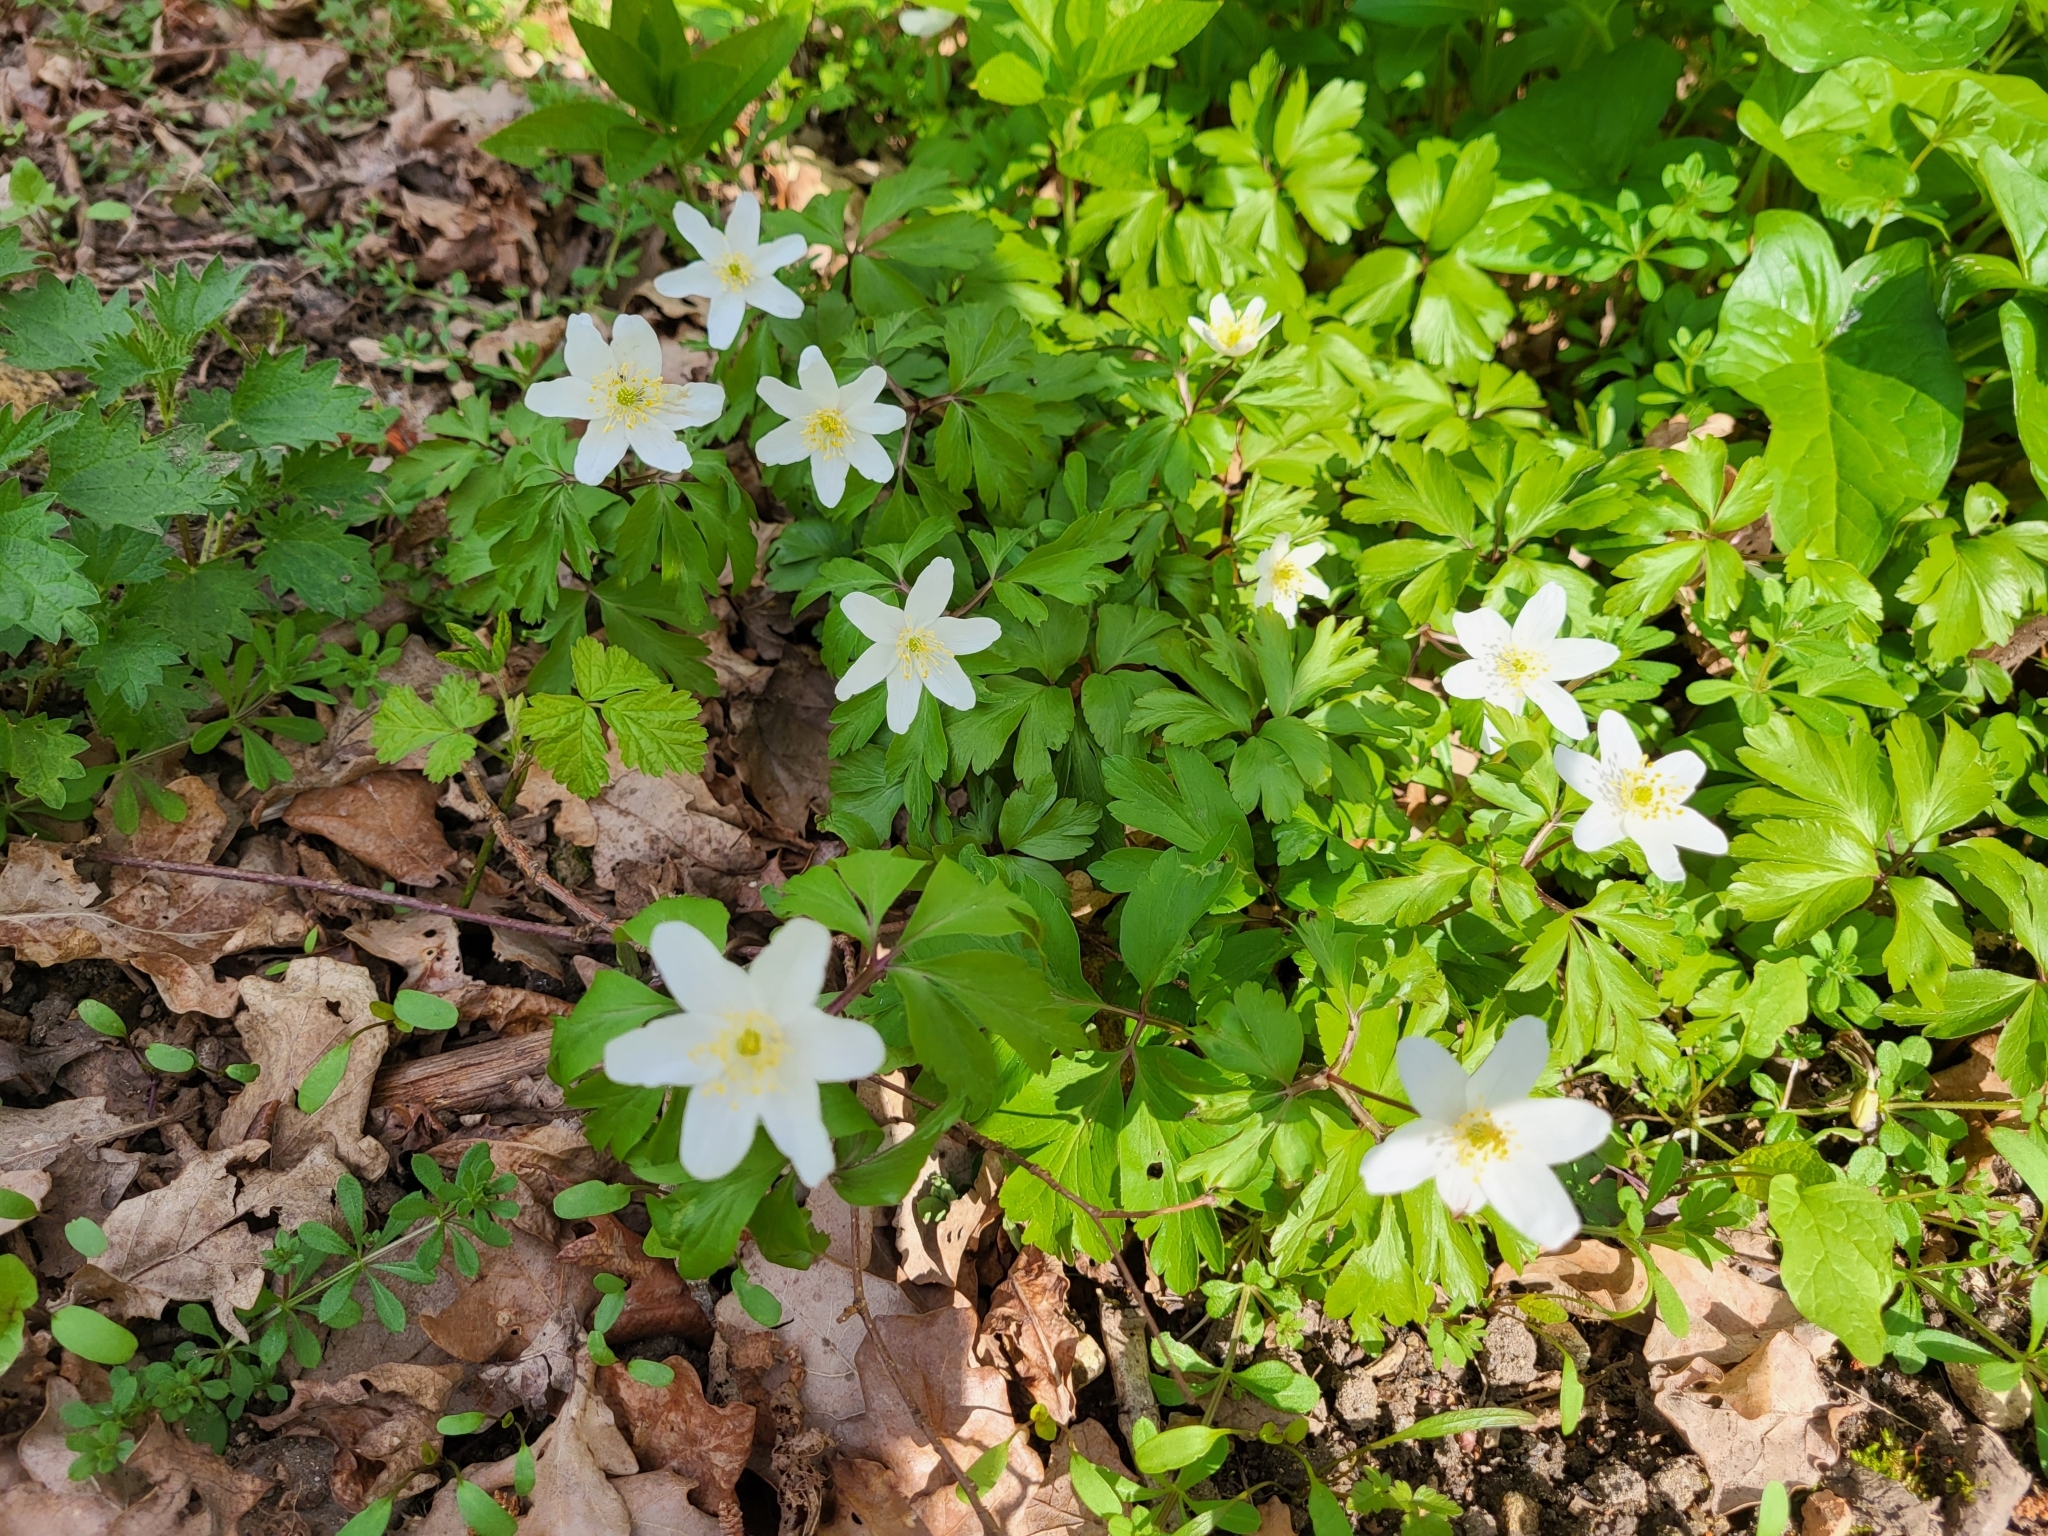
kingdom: Plantae
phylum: Tracheophyta
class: Magnoliopsida
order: Ranunculales
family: Ranunculaceae
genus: Anemone
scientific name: Anemone nemorosa
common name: Wood anemone
